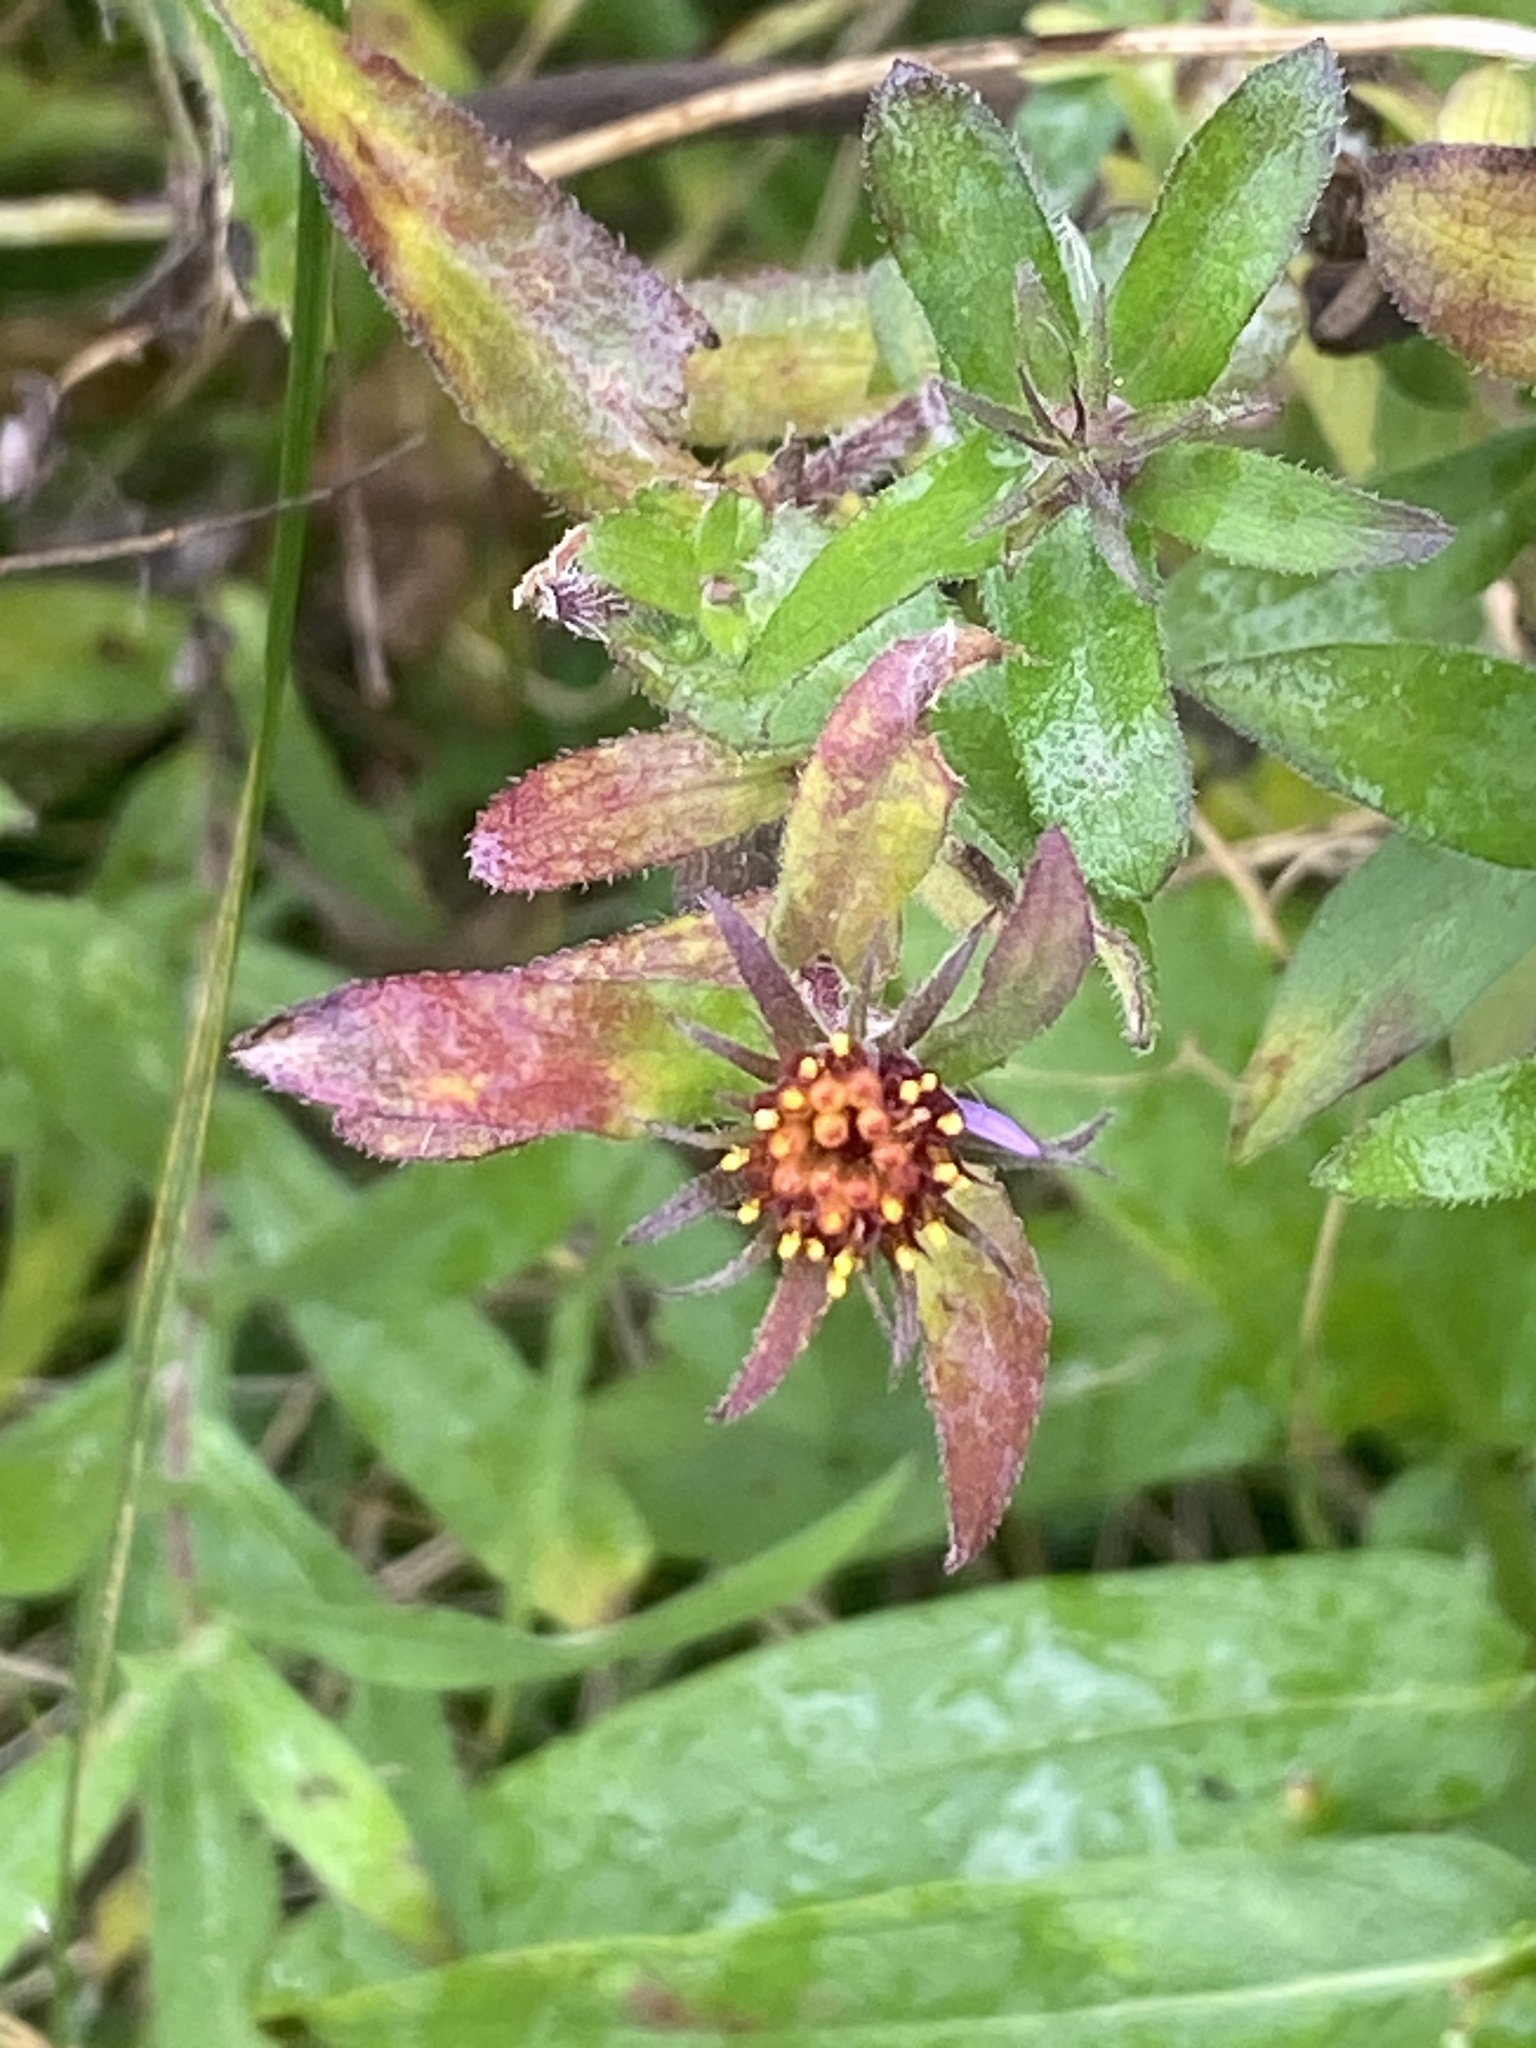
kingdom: Plantae
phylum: Tracheophyta
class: Magnoliopsida
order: Asterales
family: Asteraceae
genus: Symphyotrichum
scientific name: Symphyotrichum novae-angliae
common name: Michaelmas daisy
